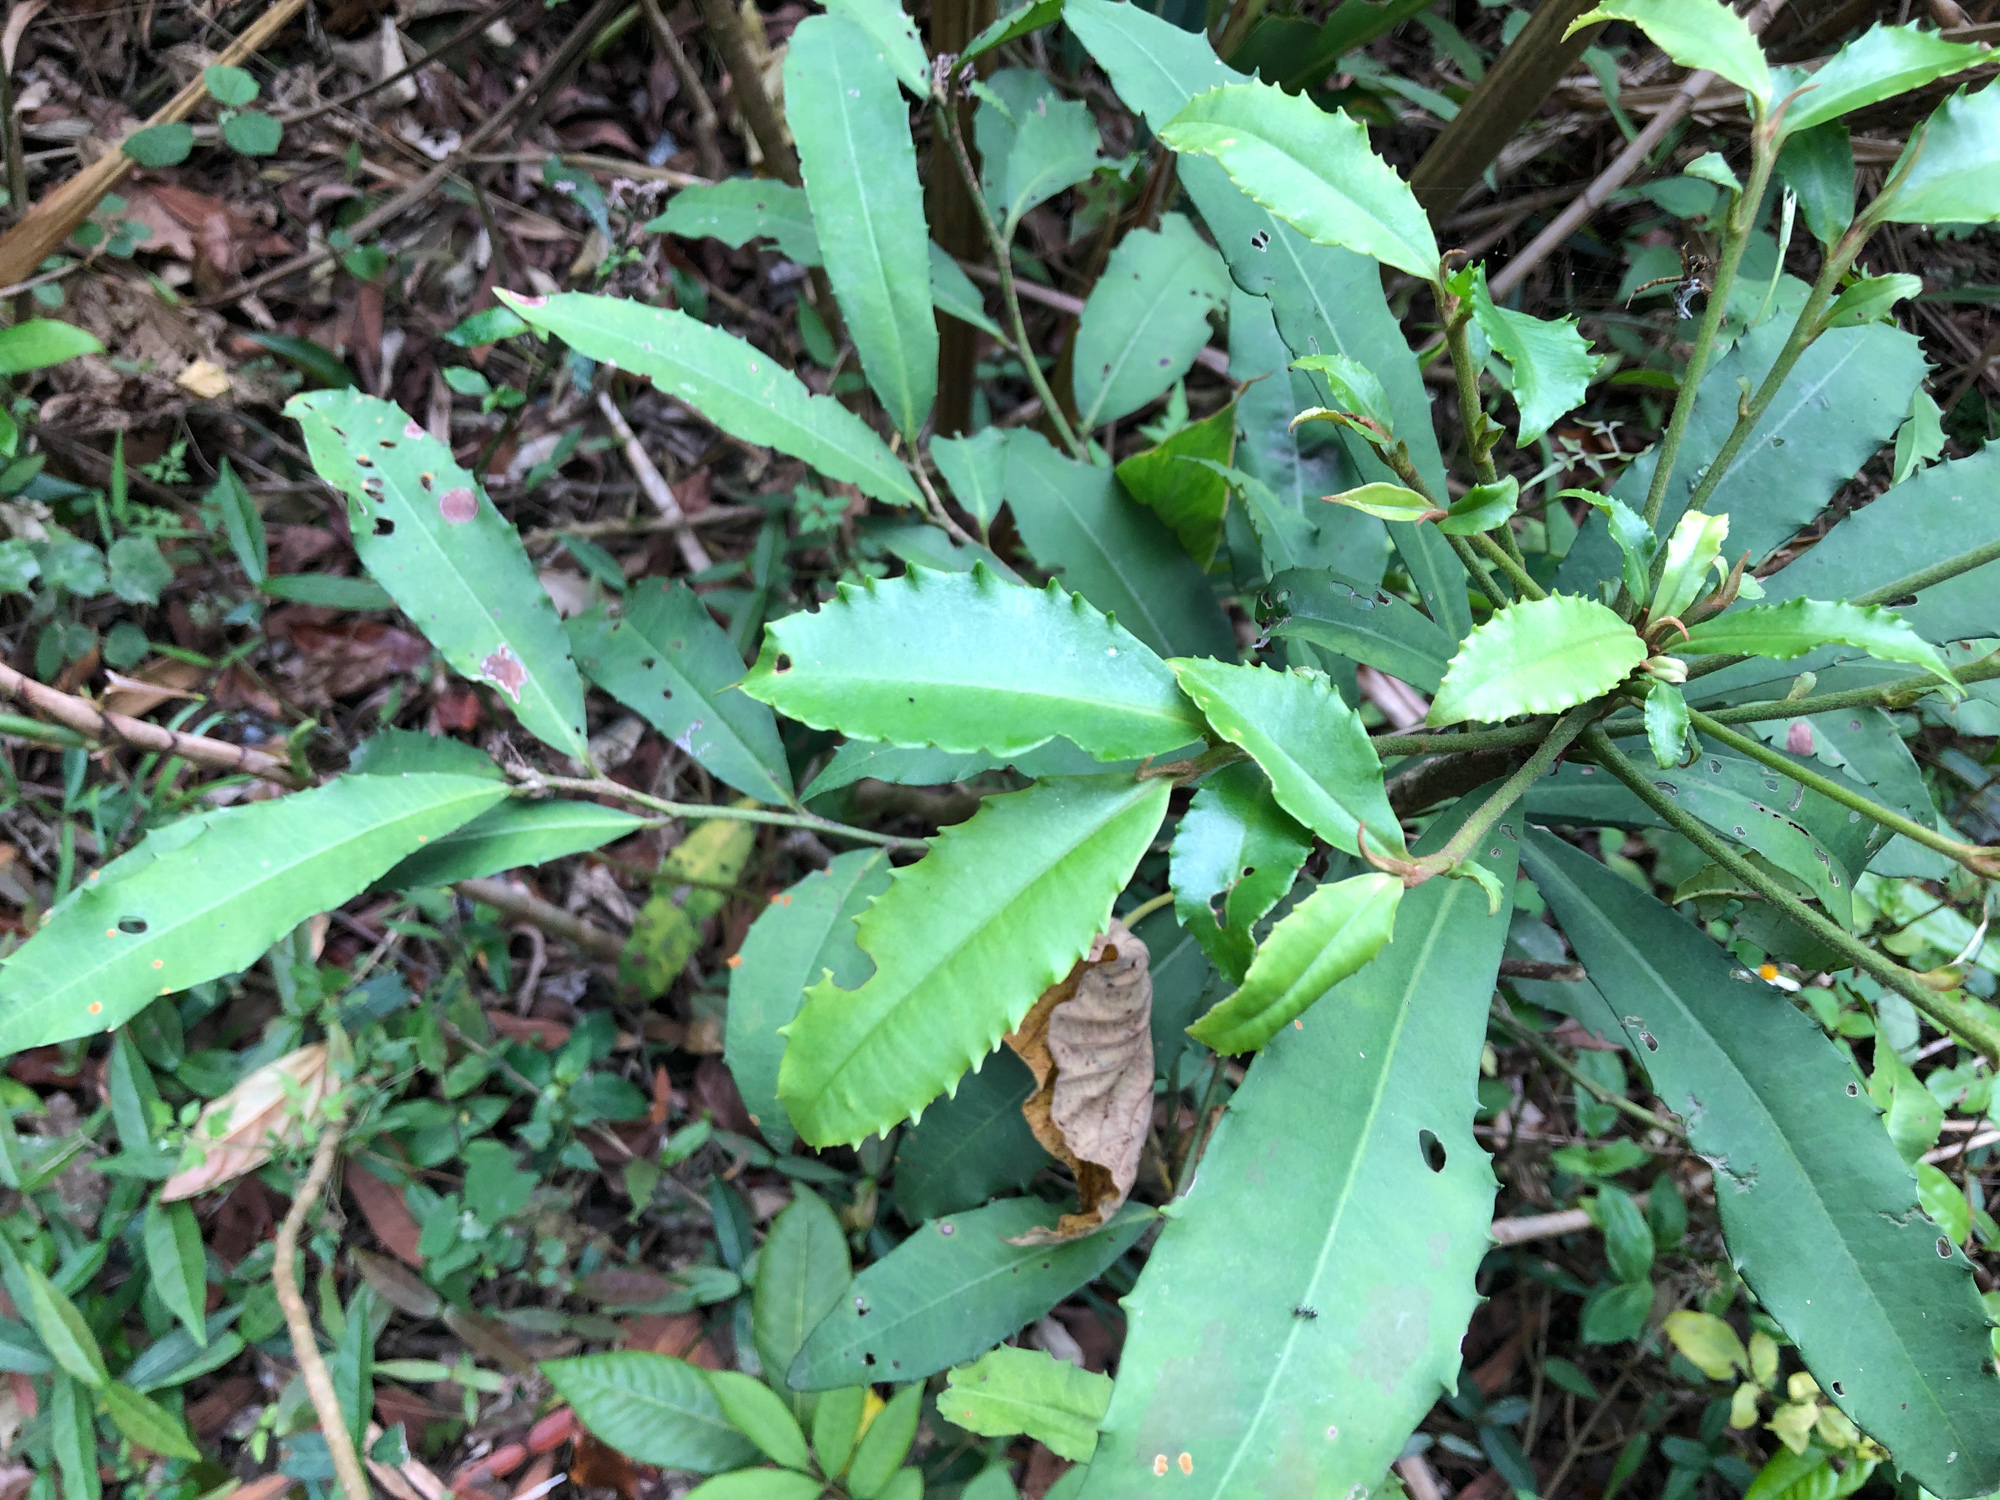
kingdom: Plantae
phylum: Tracheophyta
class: Magnoliopsida
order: Ericales
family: Primulaceae
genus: Ardisia
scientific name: Ardisia cornudentata
